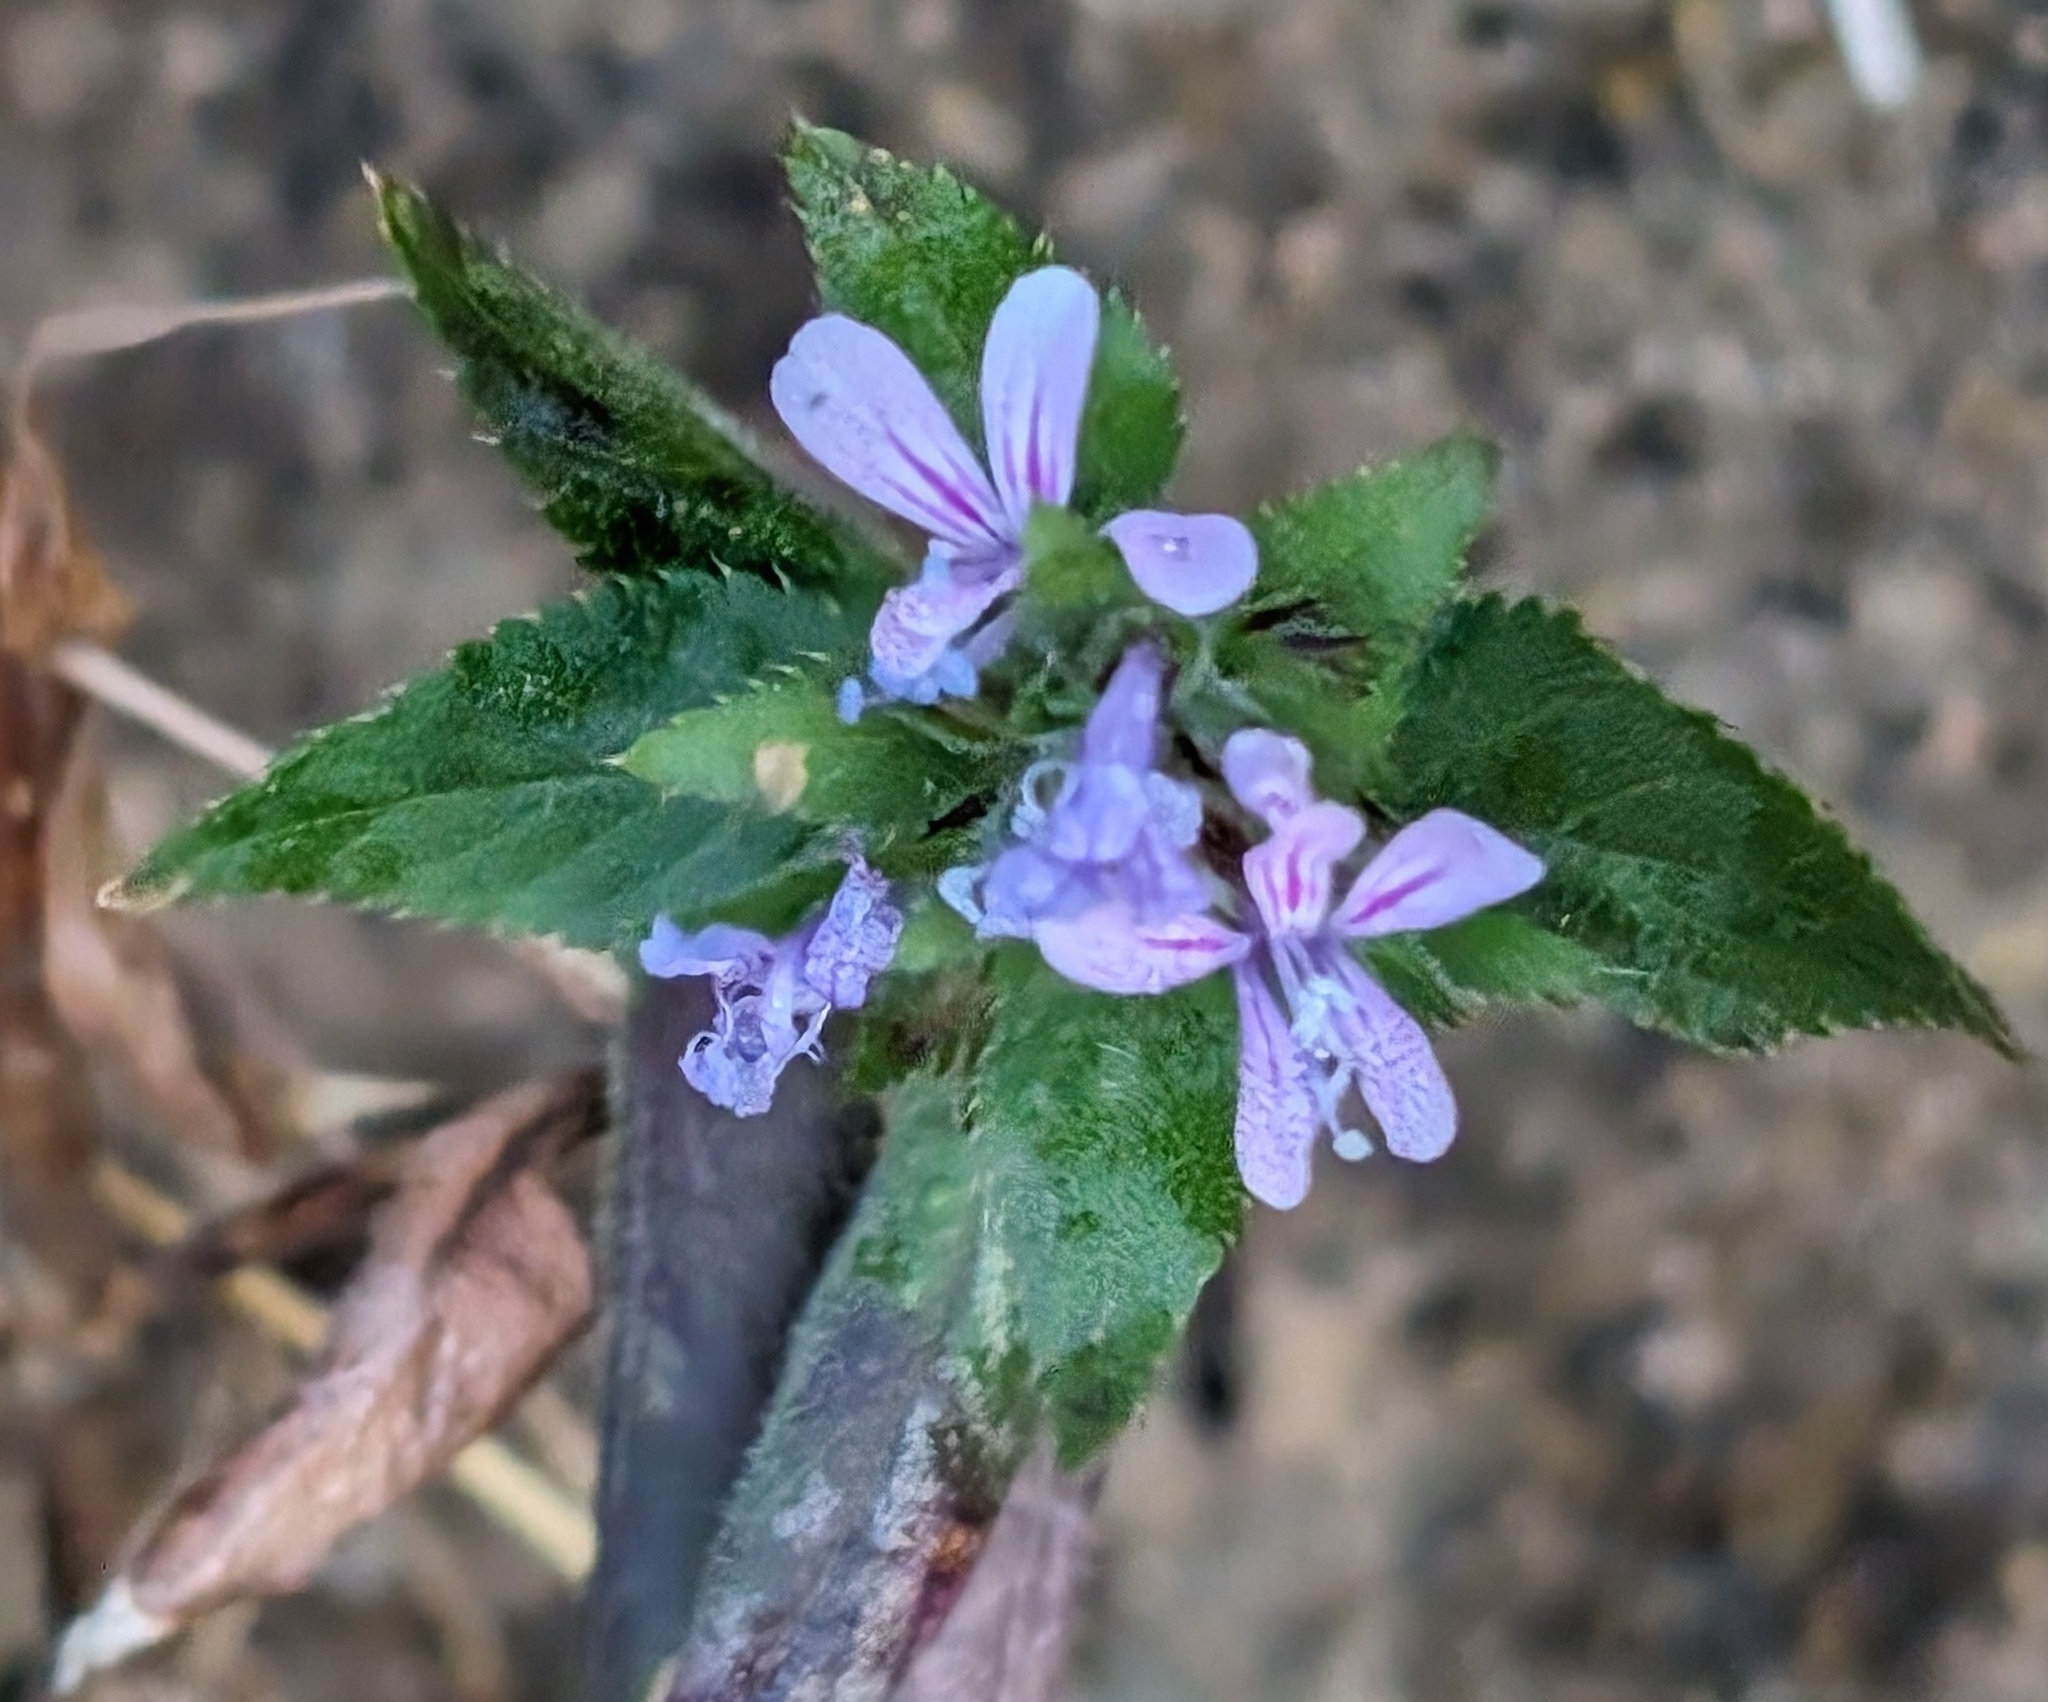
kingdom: Plantae
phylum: Tracheophyta
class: Magnoliopsida
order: Ericales
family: Polemoniaceae
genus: Loeselia
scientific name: Loeselia glandulosa
